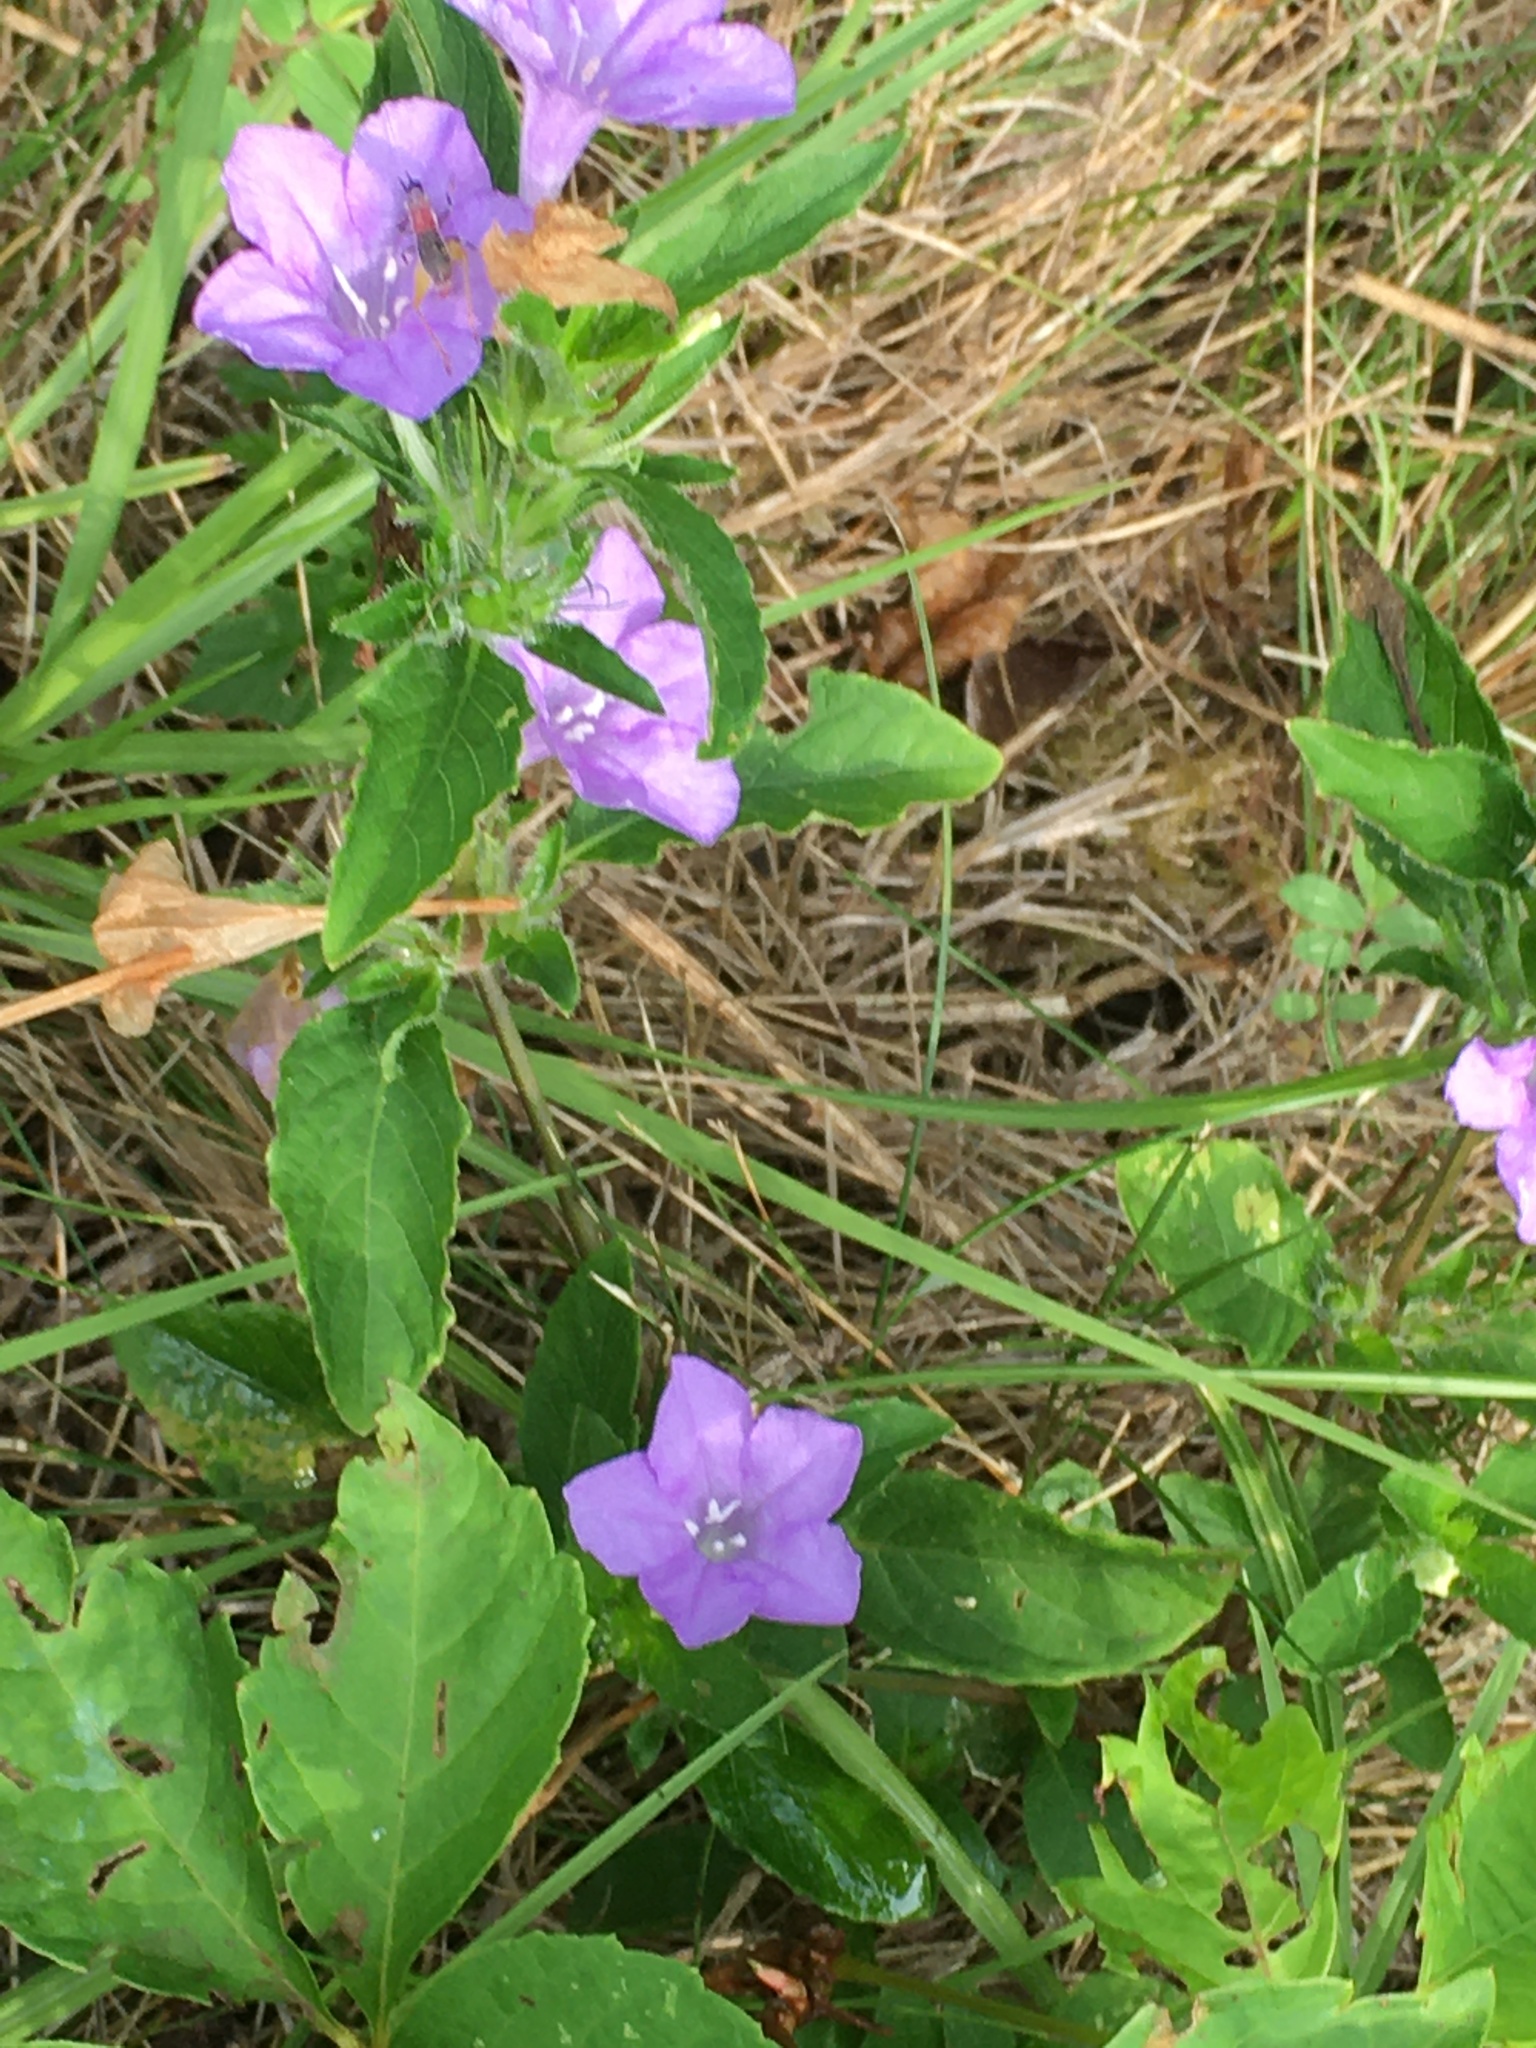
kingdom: Plantae
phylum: Tracheophyta
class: Magnoliopsida
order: Lamiales
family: Acanthaceae
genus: Ruellia
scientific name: Ruellia caroliniensis
